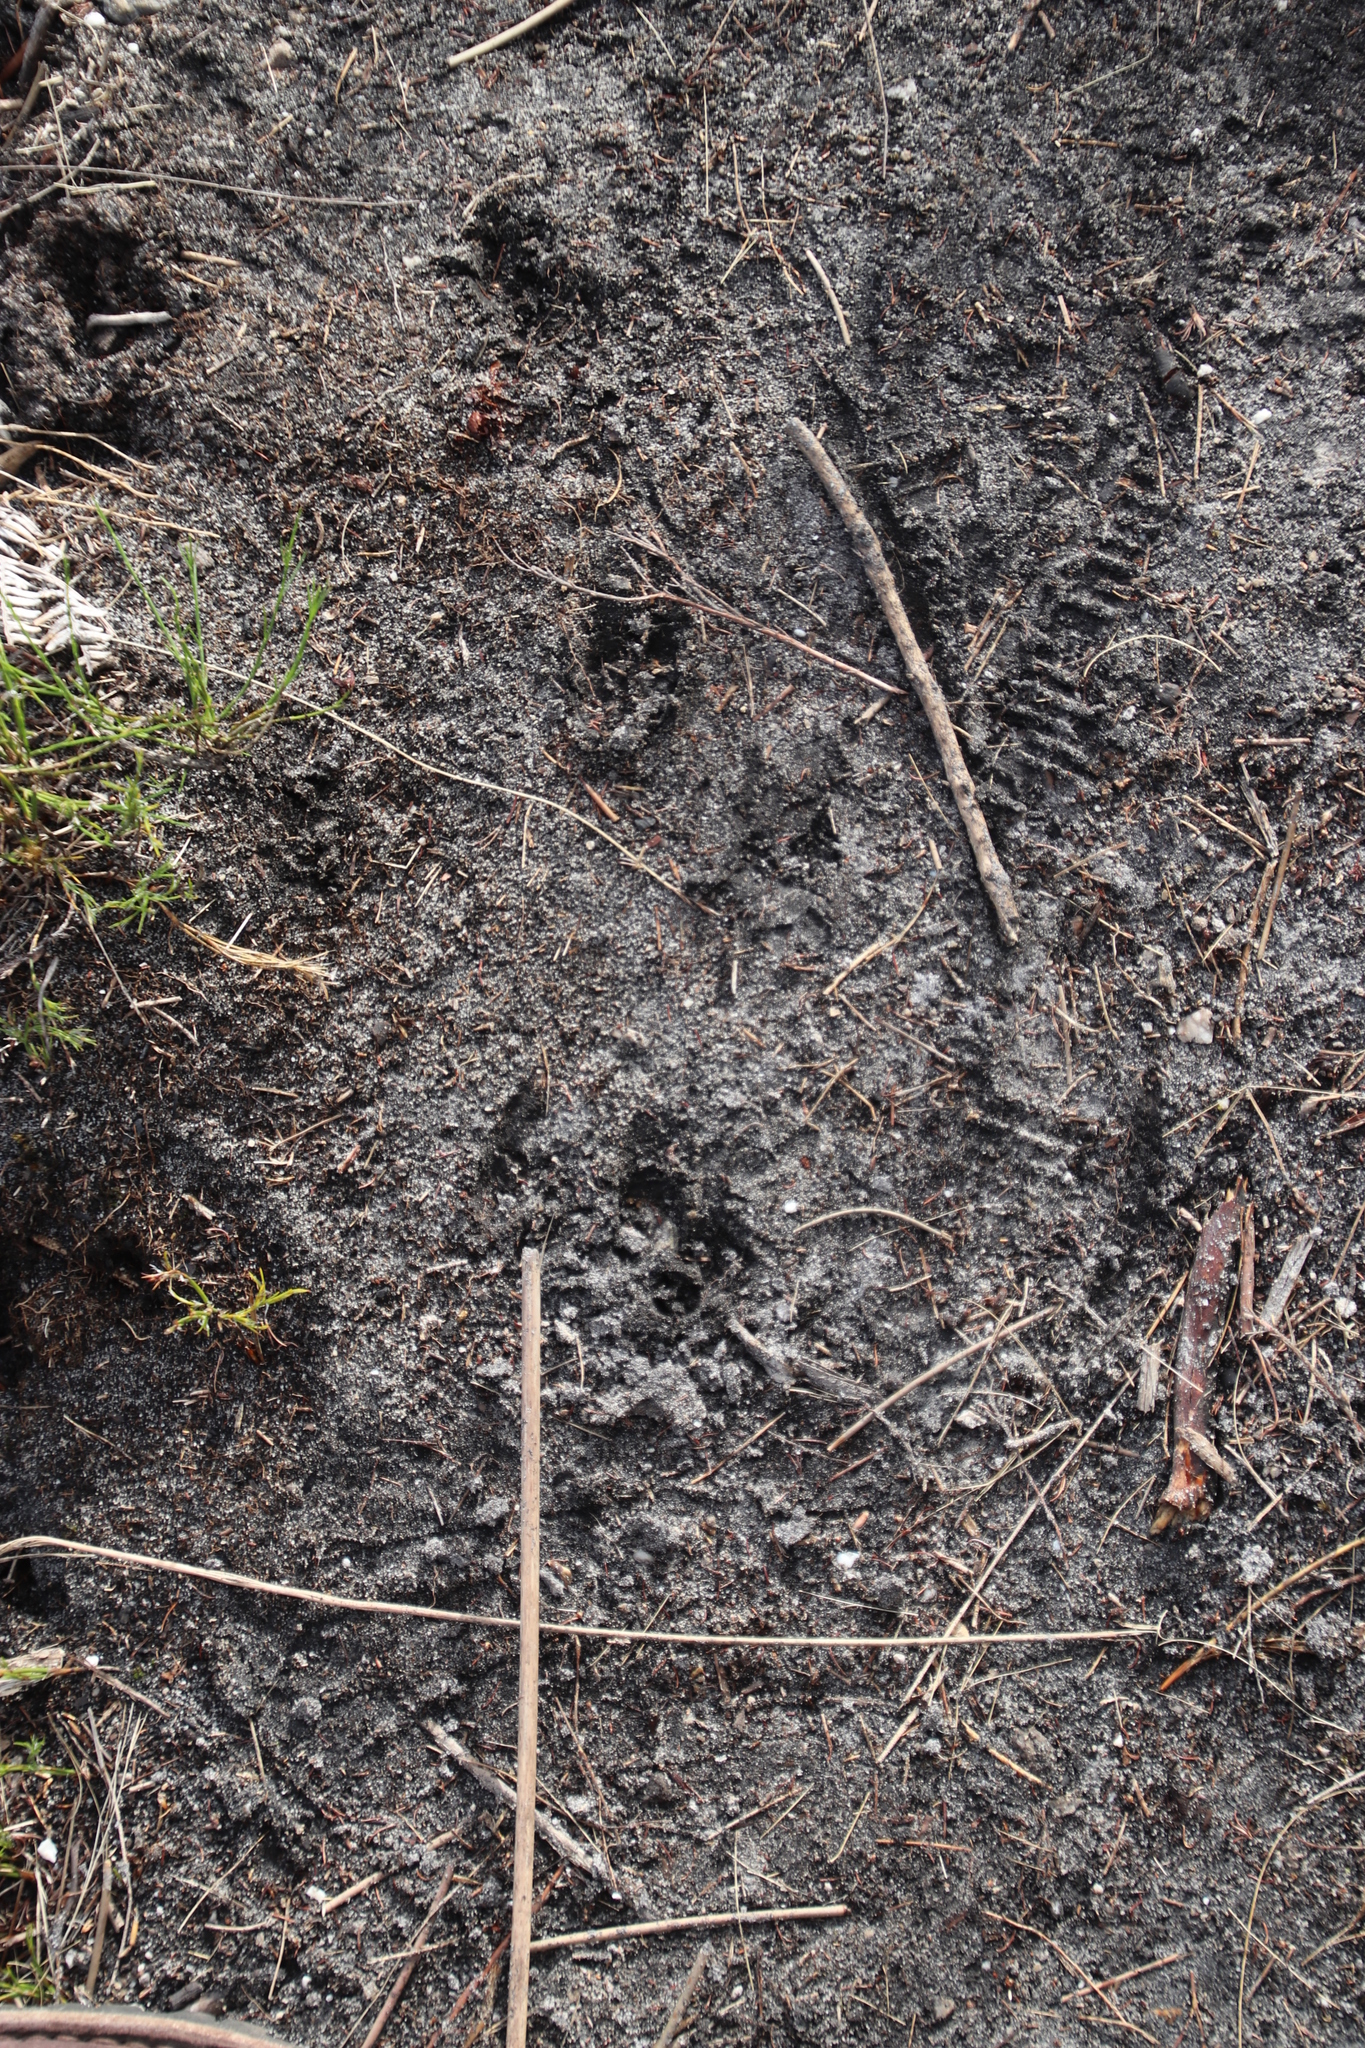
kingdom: Animalia
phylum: Chordata
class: Mammalia
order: Artiodactyla
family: Bovidae
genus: Oreotragus
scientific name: Oreotragus oreotragus
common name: Klipspringer
